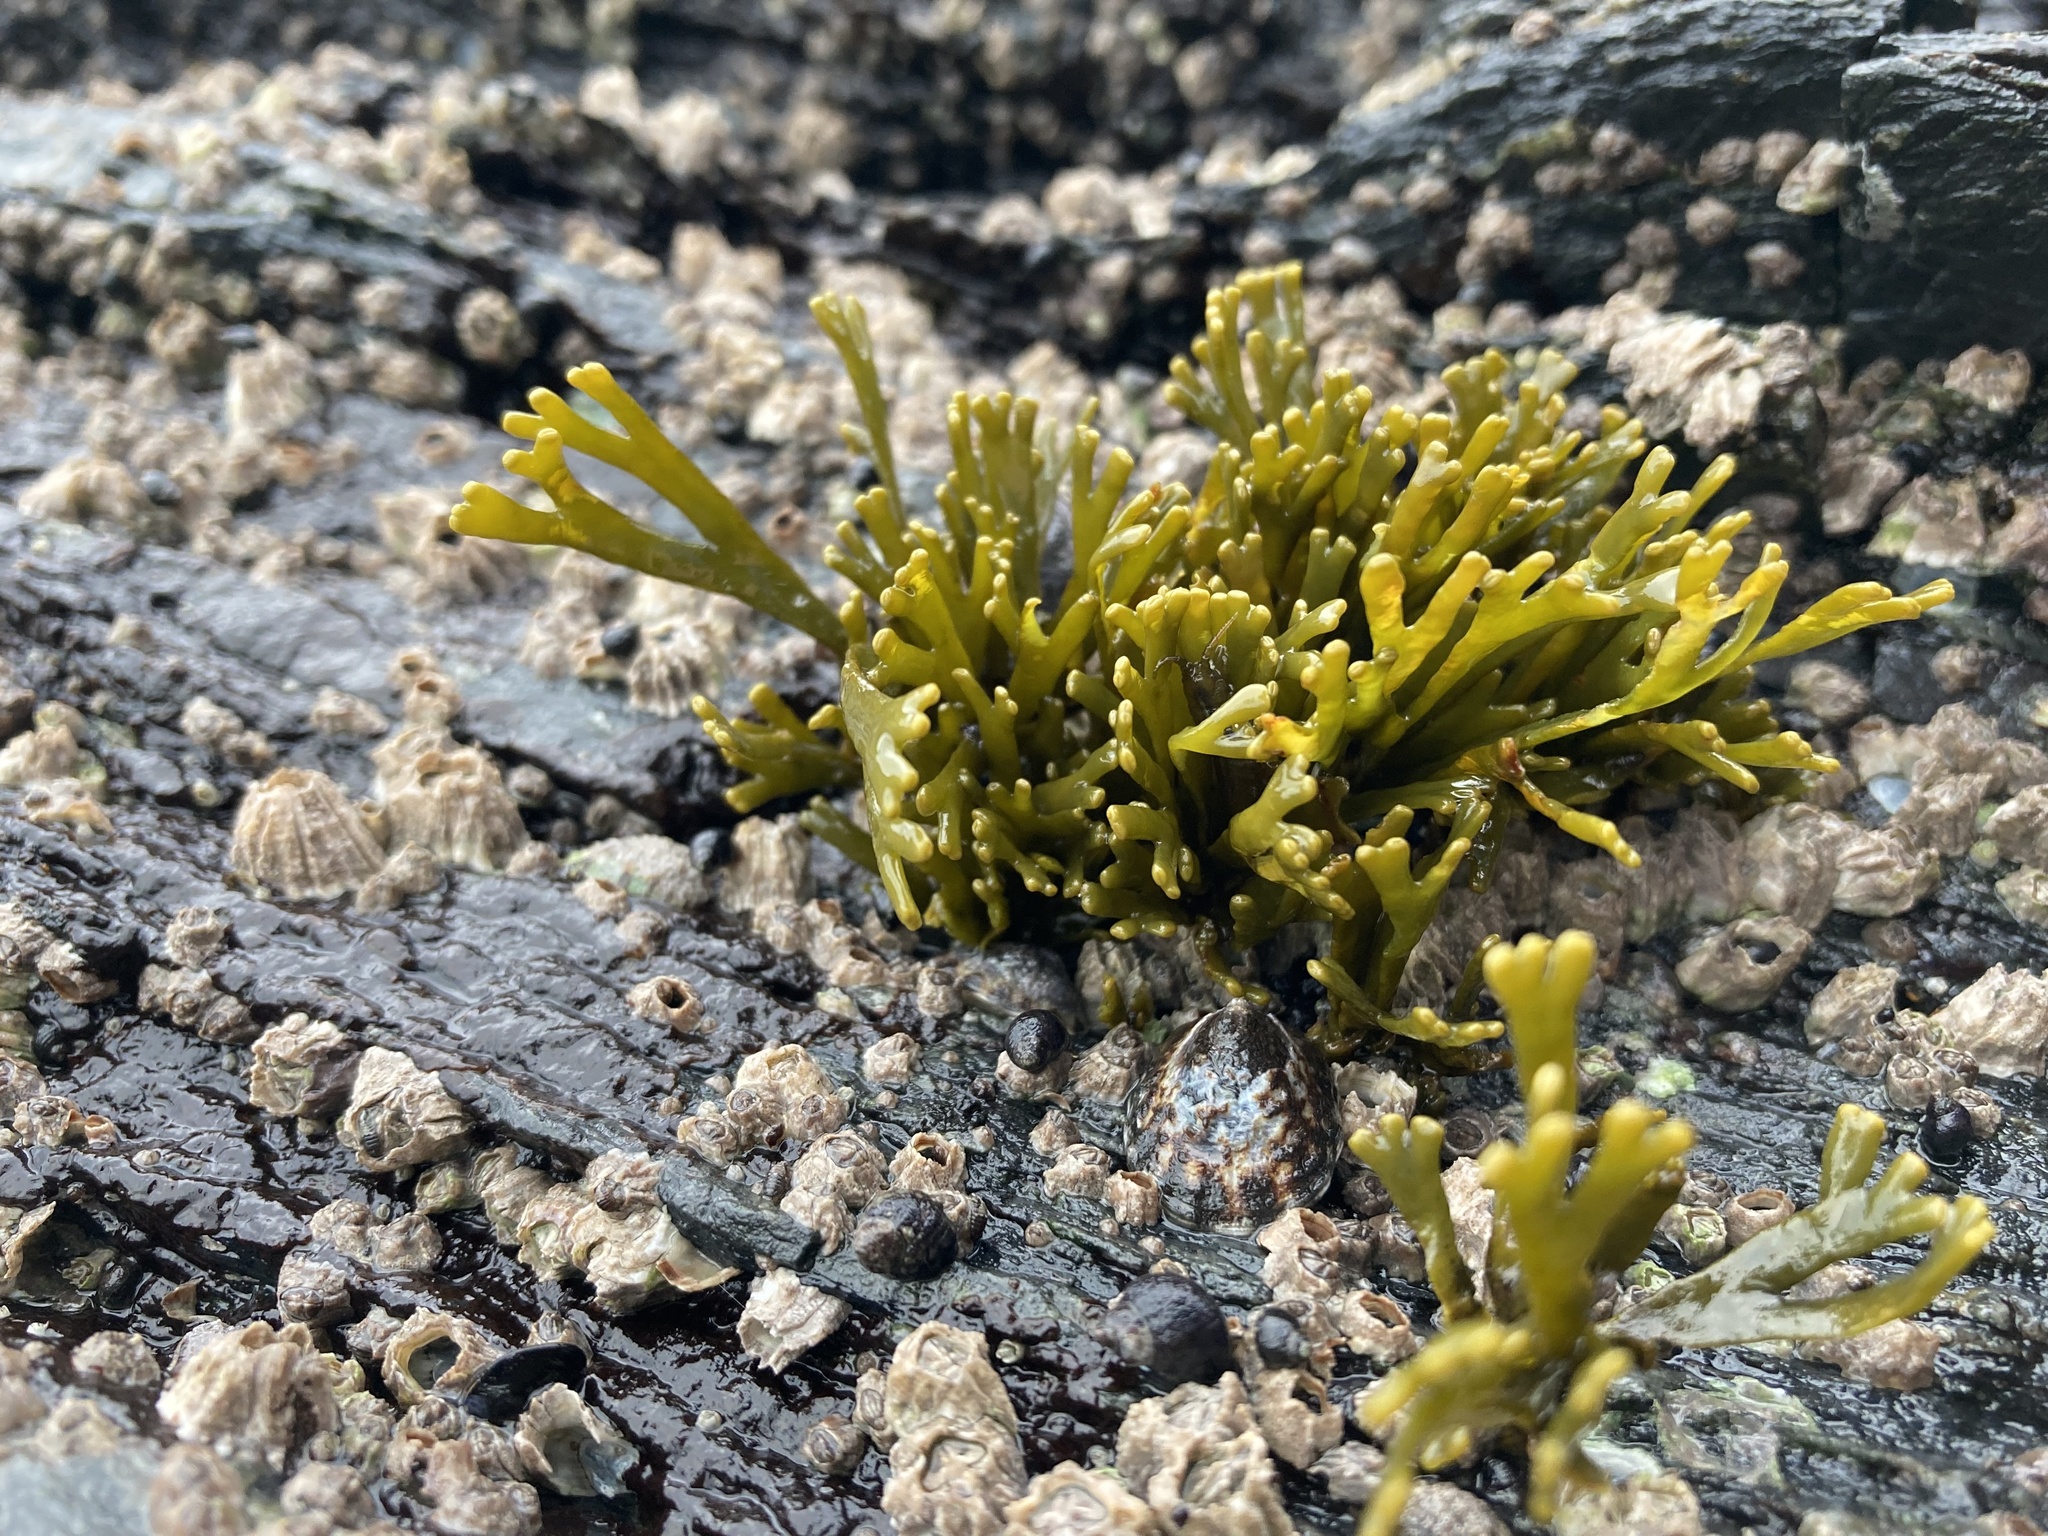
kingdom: Chromista
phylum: Ochrophyta
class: Phaeophyceae
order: Fucales
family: Fucaceae
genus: Pelvetiopsis
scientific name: Pelvetiopsis limitata
